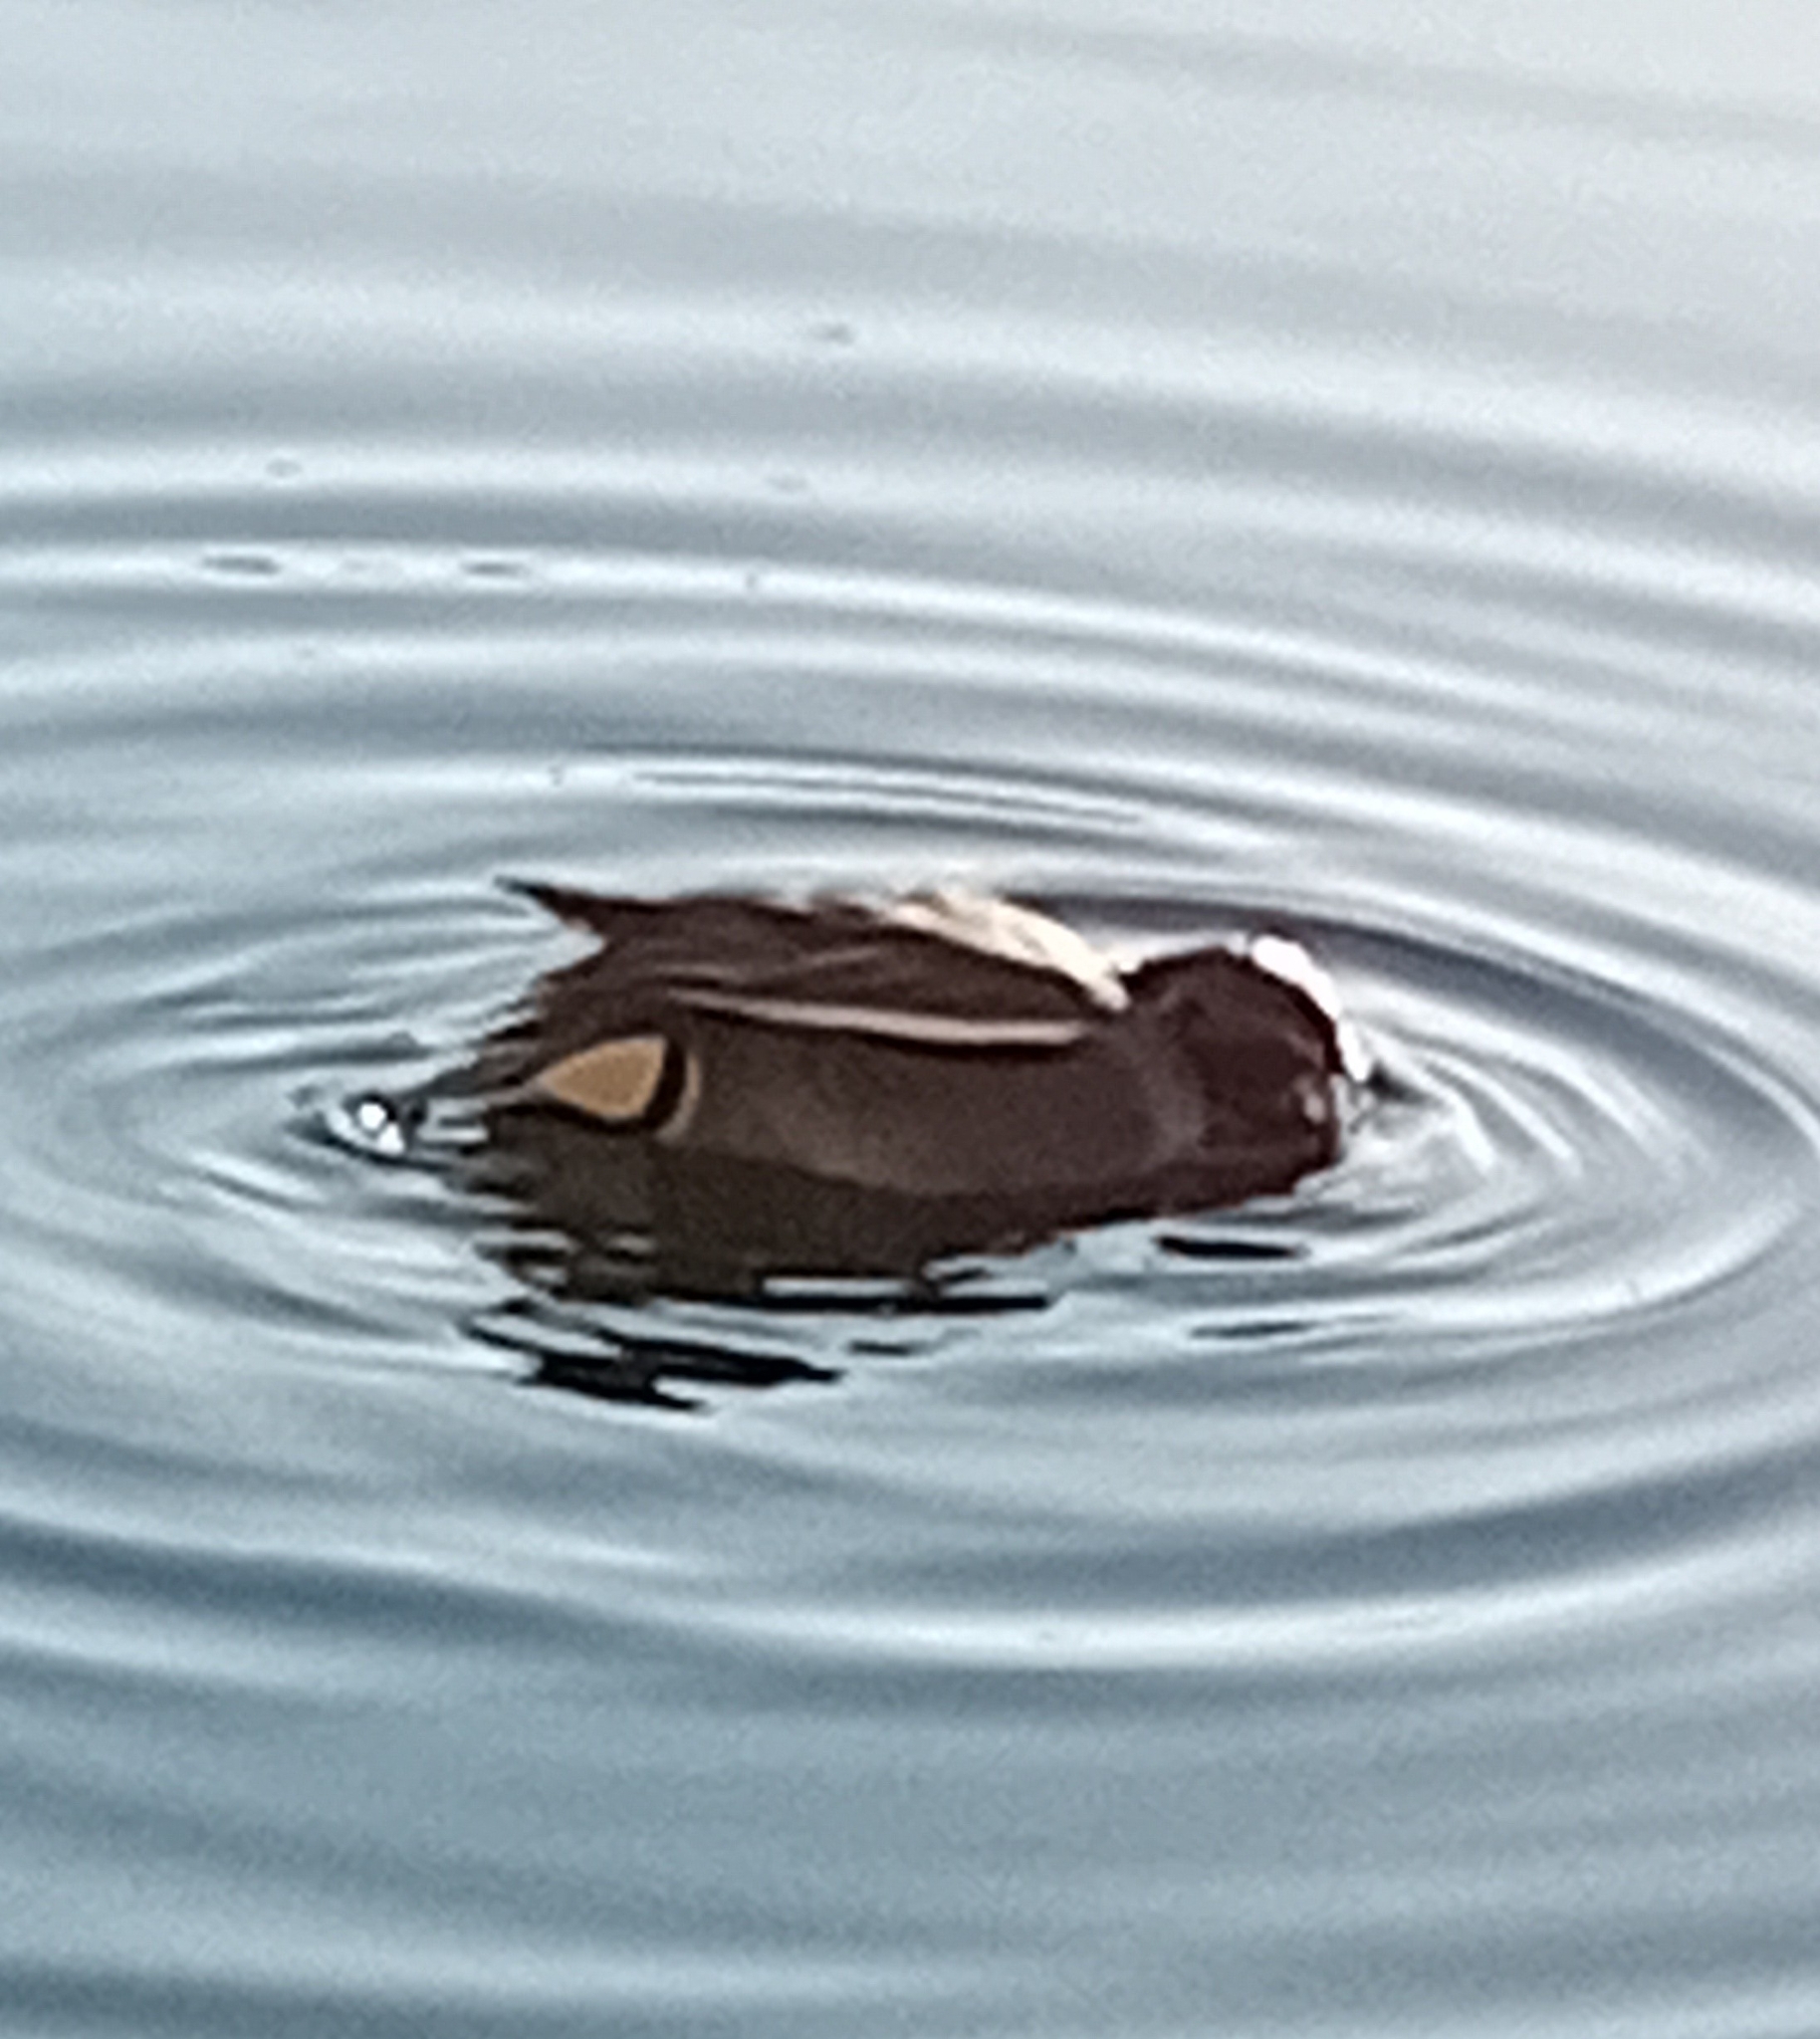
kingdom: Animalia
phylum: Chordata
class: Aves
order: Anseriformes
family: Anatidae
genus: Anas
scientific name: Anas crecca
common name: Eurasian teal
